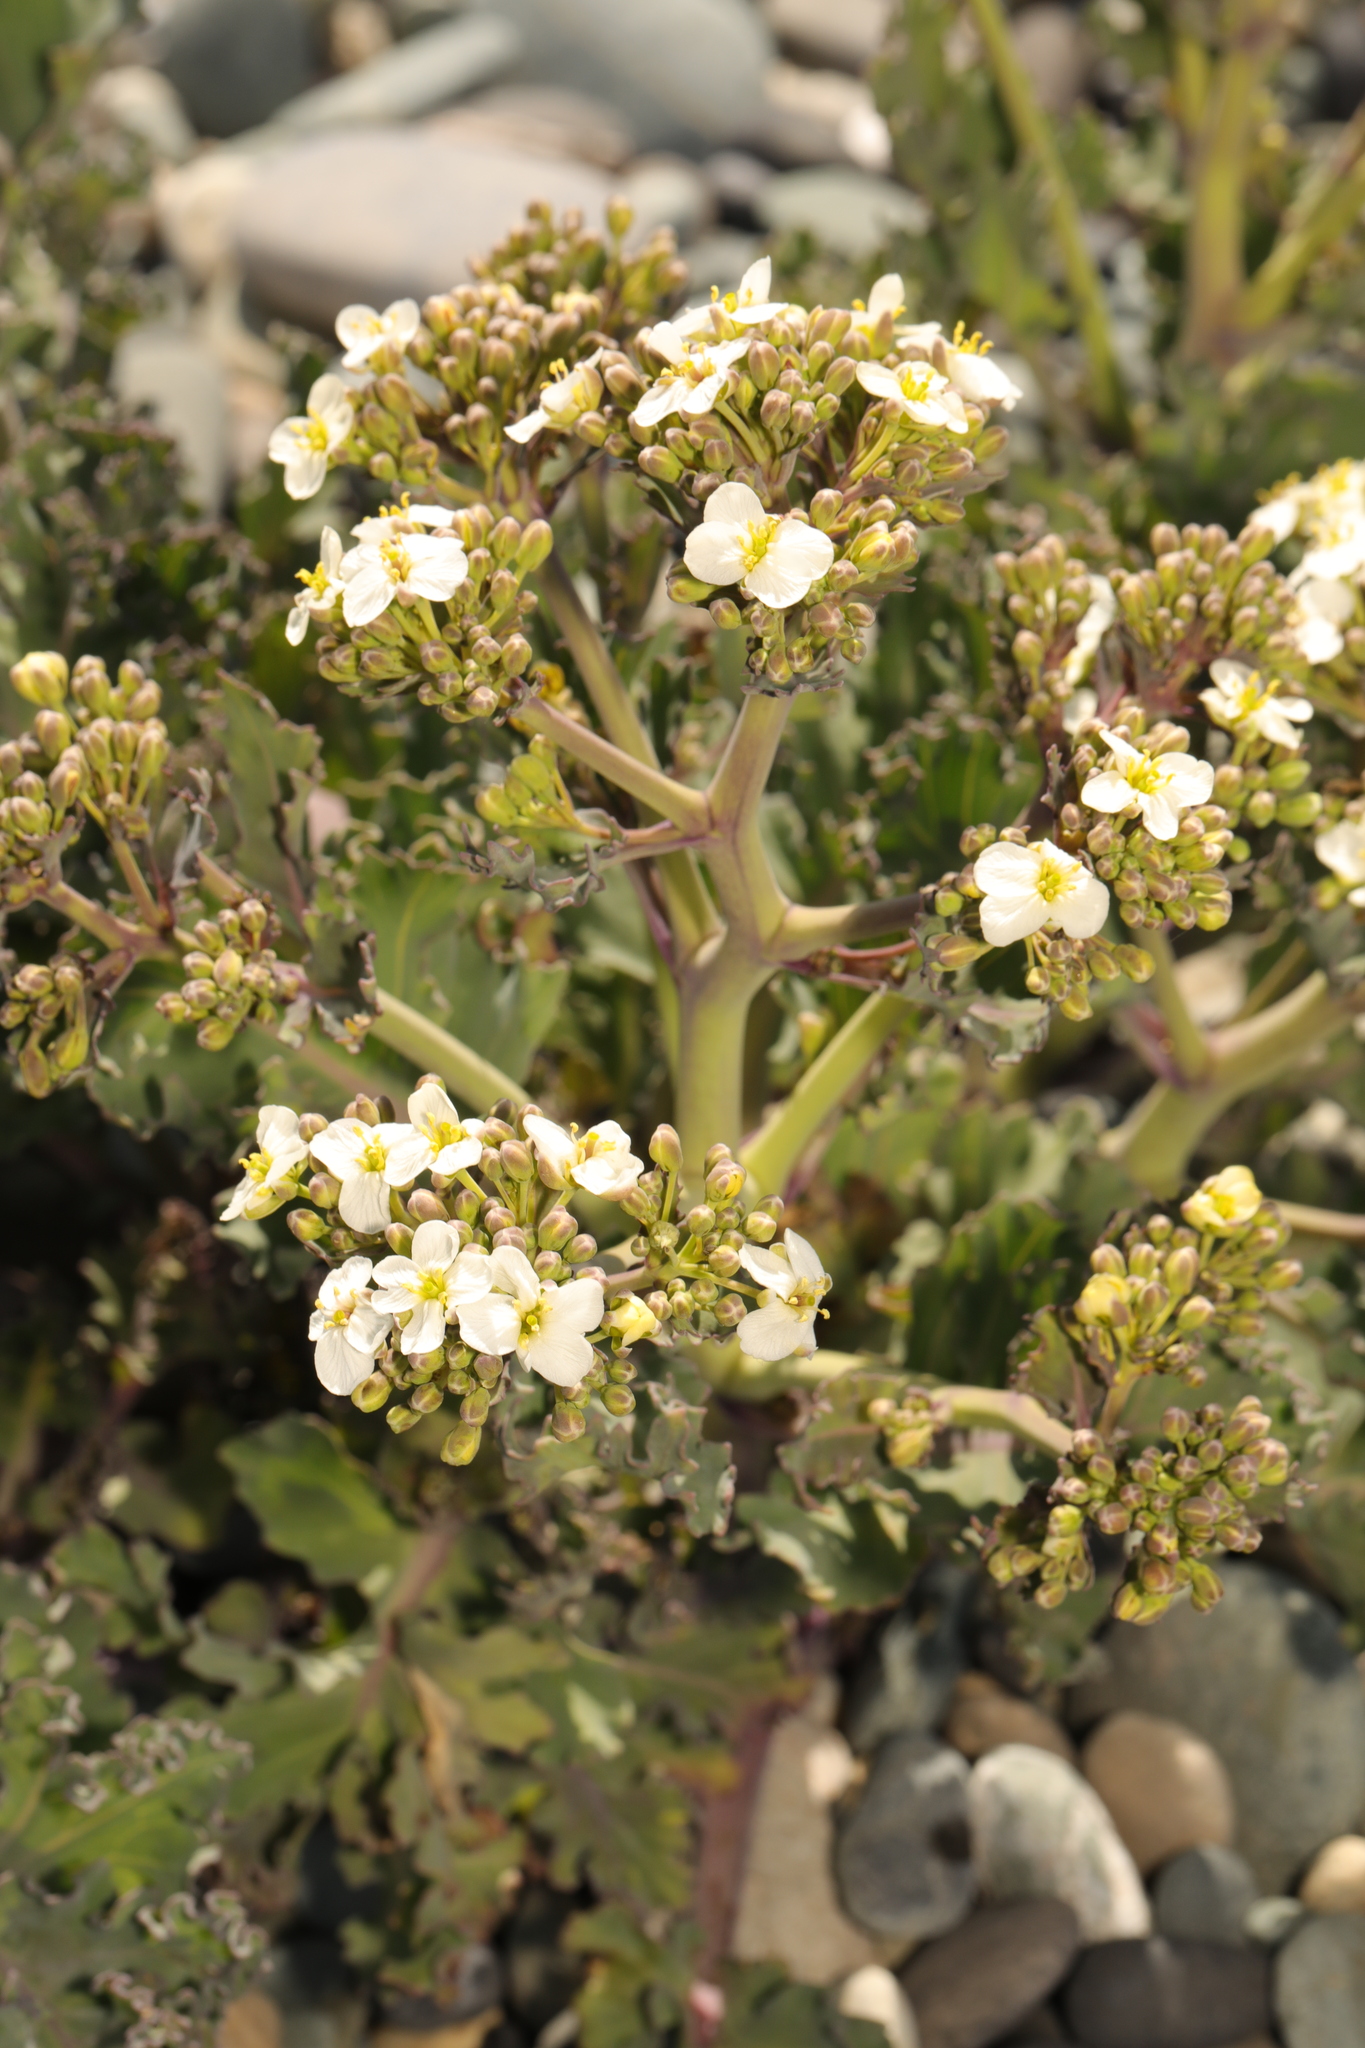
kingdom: Plantae
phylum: Tracheophyta
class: Magnoliopsida
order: Brassicales
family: Brassicaceae
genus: Crambe
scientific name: Crambe maritima
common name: Sea-kale
